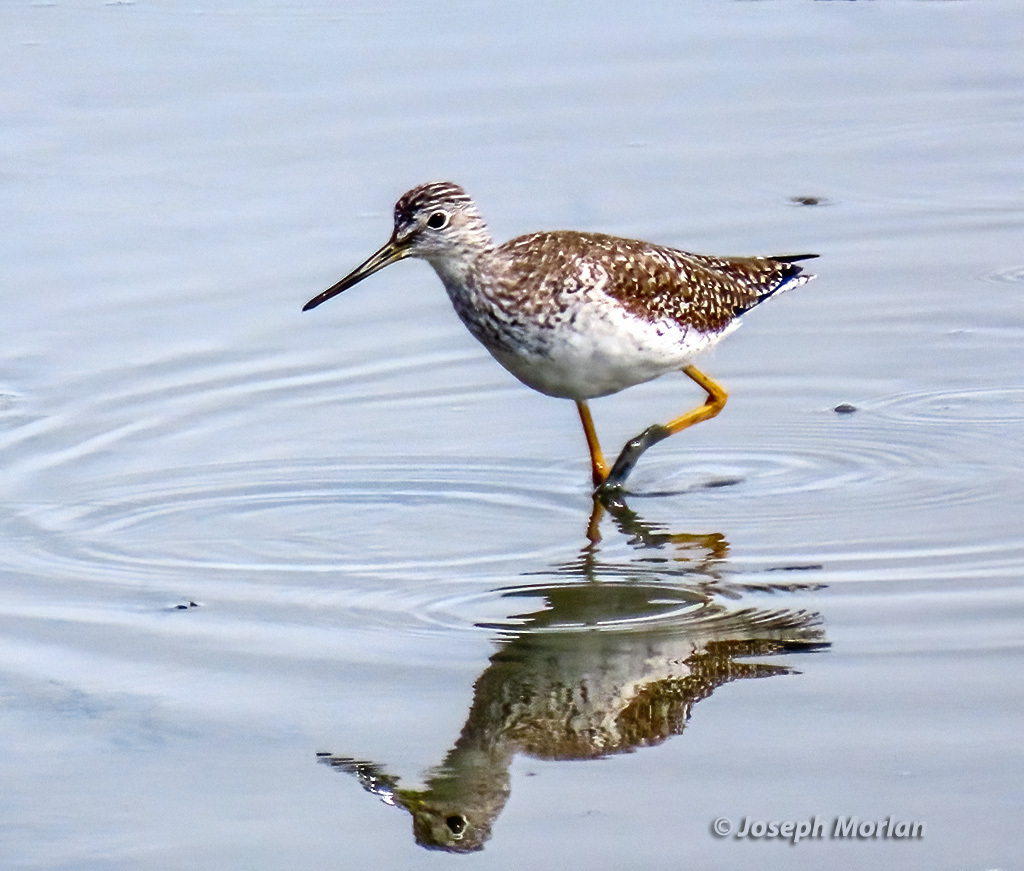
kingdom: Animalia
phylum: Chordata
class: Aves
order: Charadriiformes
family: Scolopacidae
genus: Tringa
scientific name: Tringa melanoleuca
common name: Greater yellowlegs
